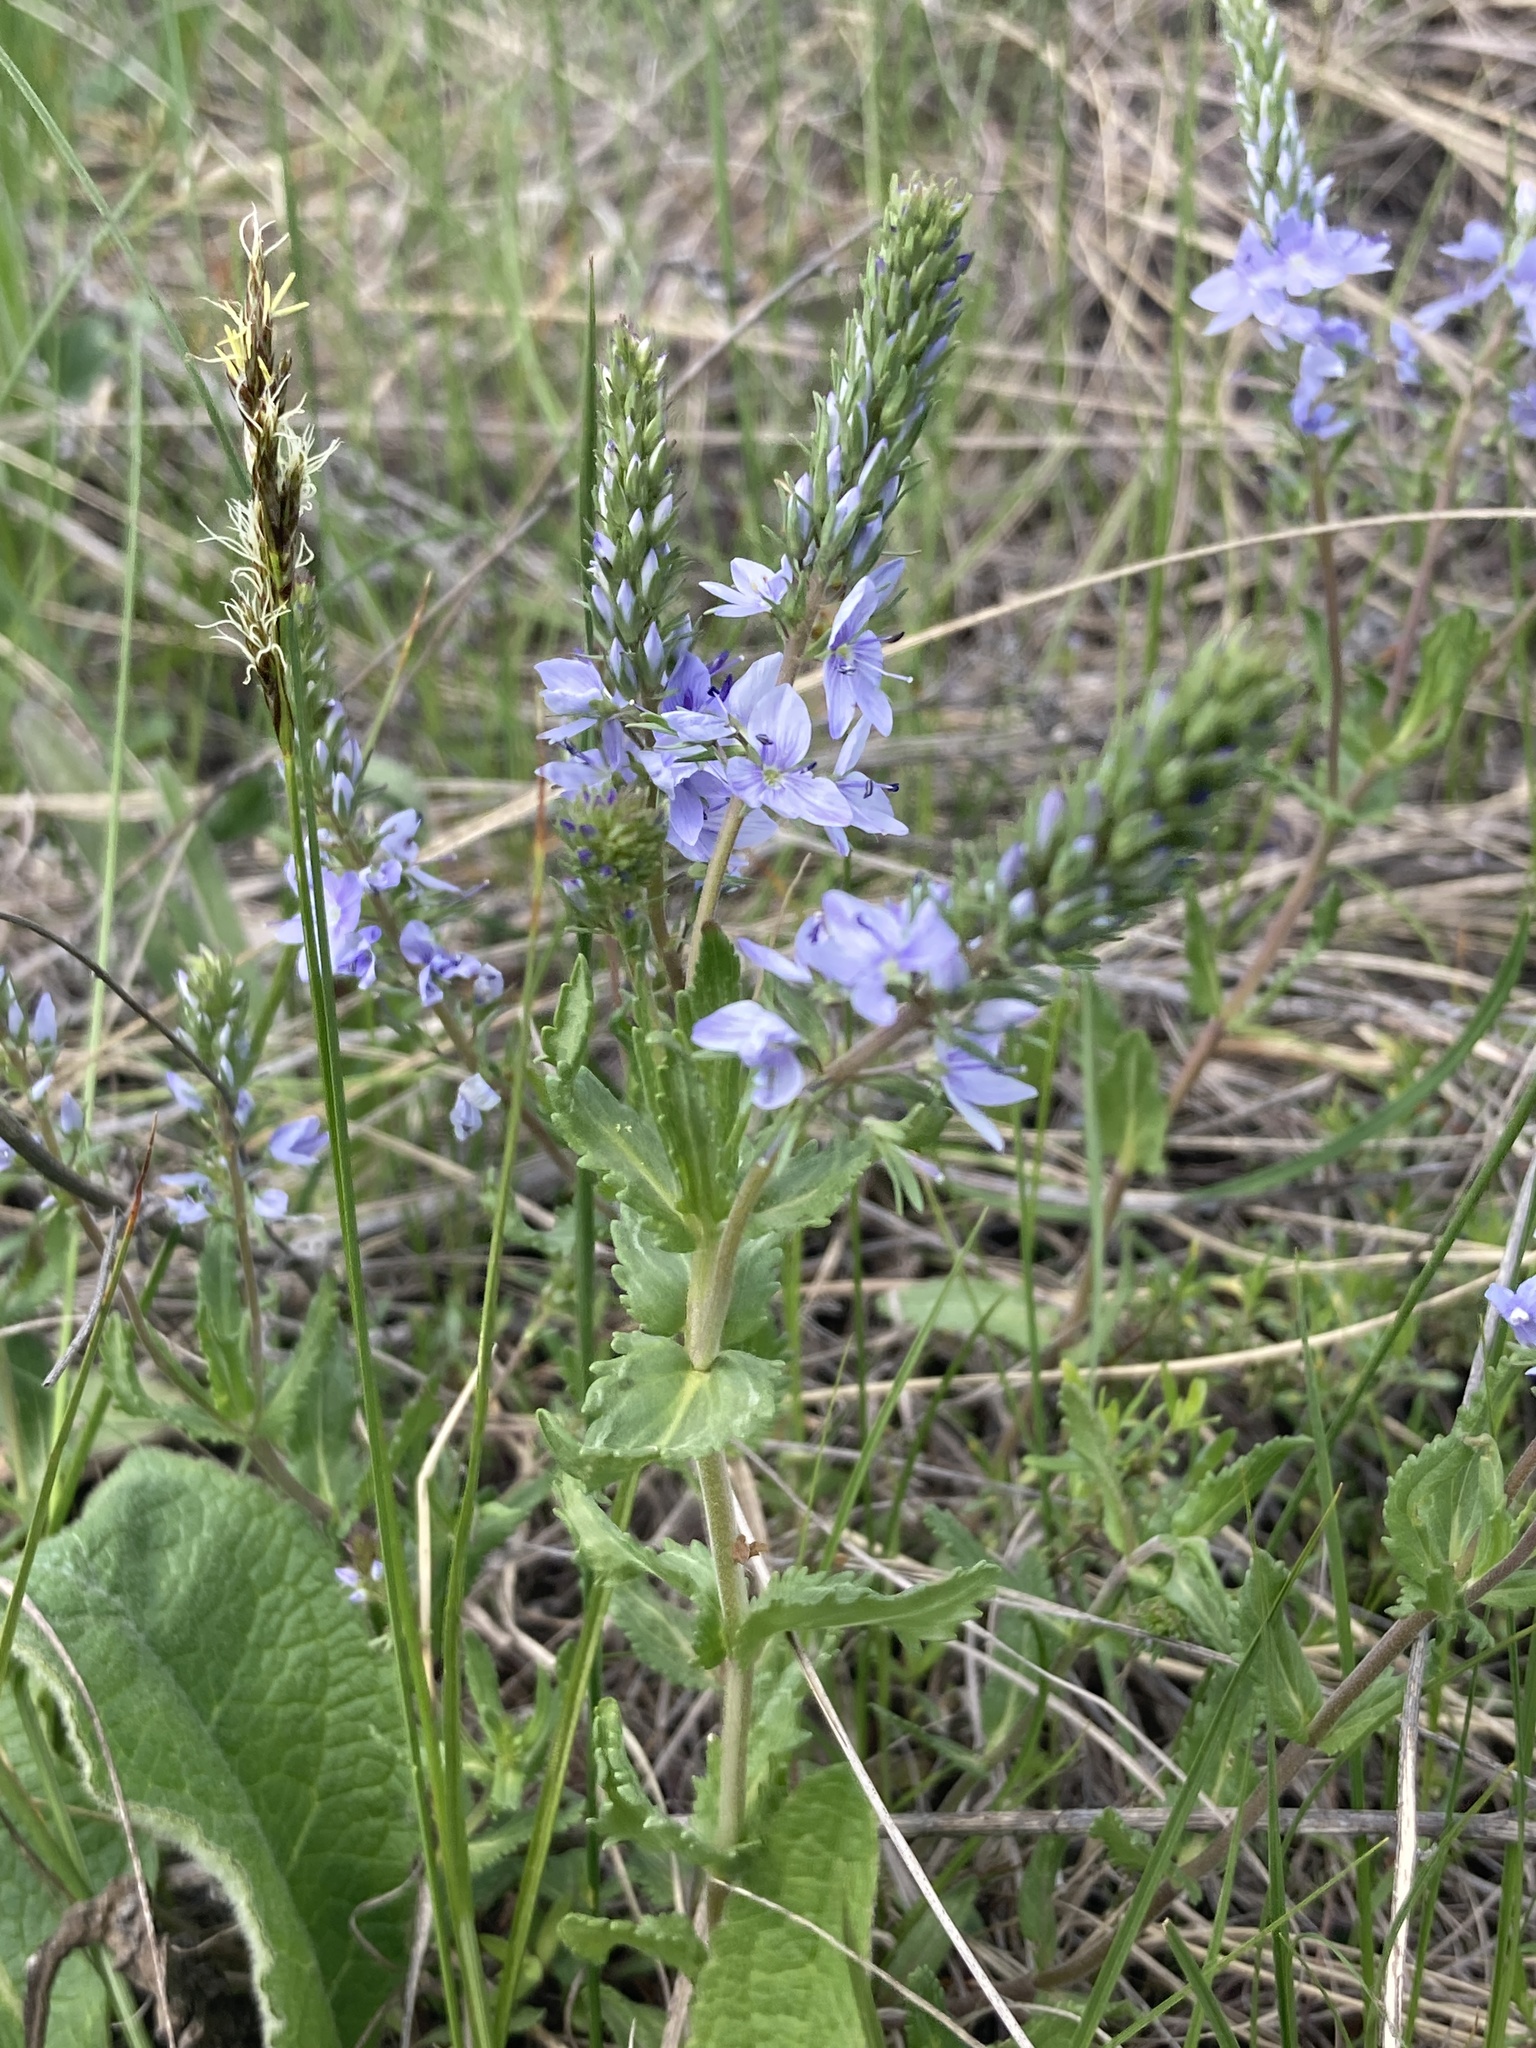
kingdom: Plantae
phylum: Tracheophyta
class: Magnoliopsida
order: Lamiales
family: Plantaginaceae
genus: Veronica
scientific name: Veronica prostrata
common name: Prostrate speedwell
